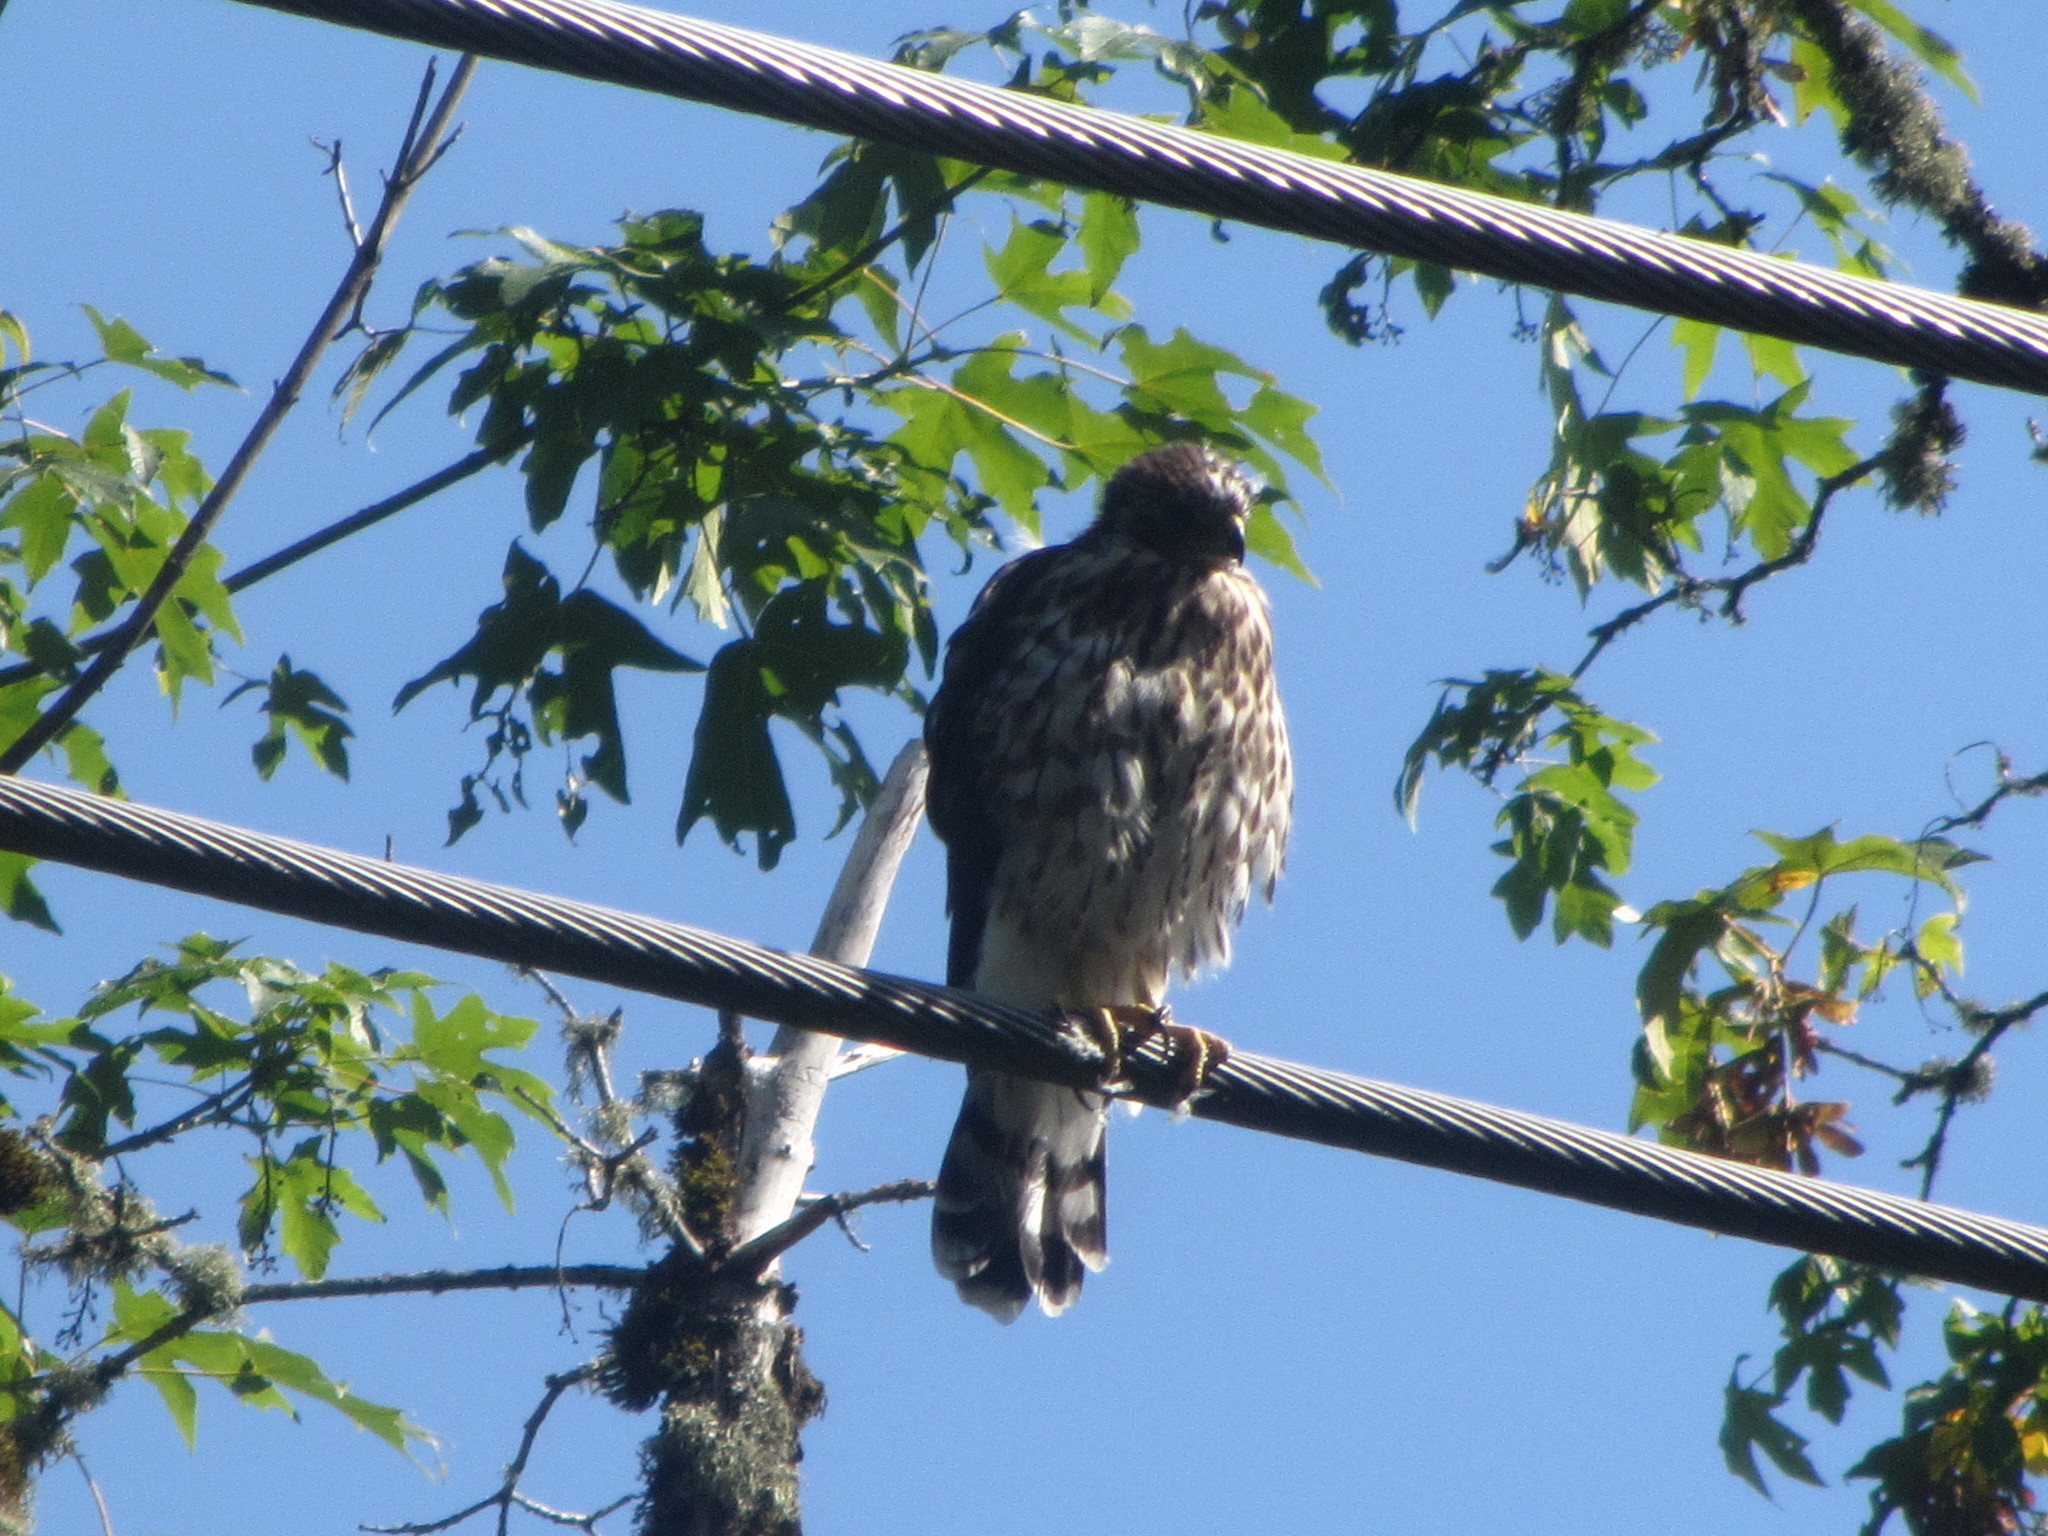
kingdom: Animalia
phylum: Chordata
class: Aves
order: Accipitriformes
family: Accipitridae
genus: Accipiter
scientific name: Accipiter cooperii
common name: Cooper's hawk
